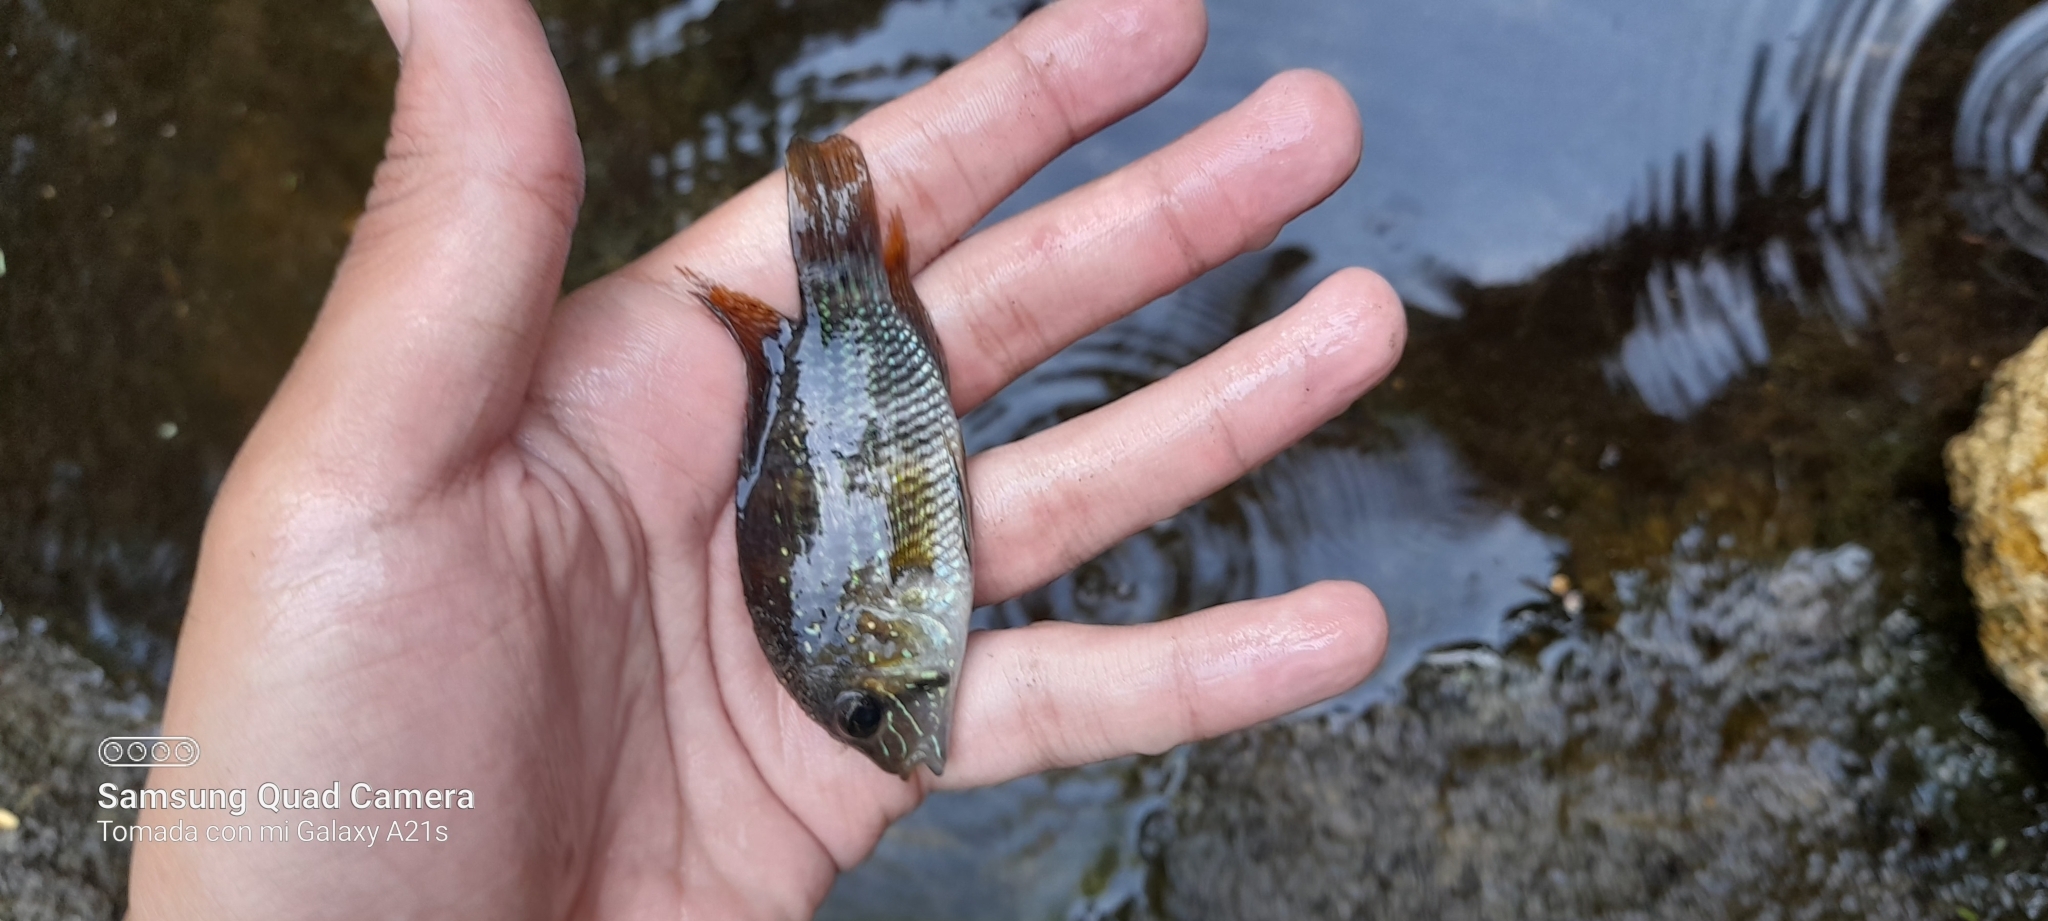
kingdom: Animalia
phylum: Chordata
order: Perciformes
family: Cichlidae
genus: Andinoacara
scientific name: Andinoacara coeruleopunctatus
